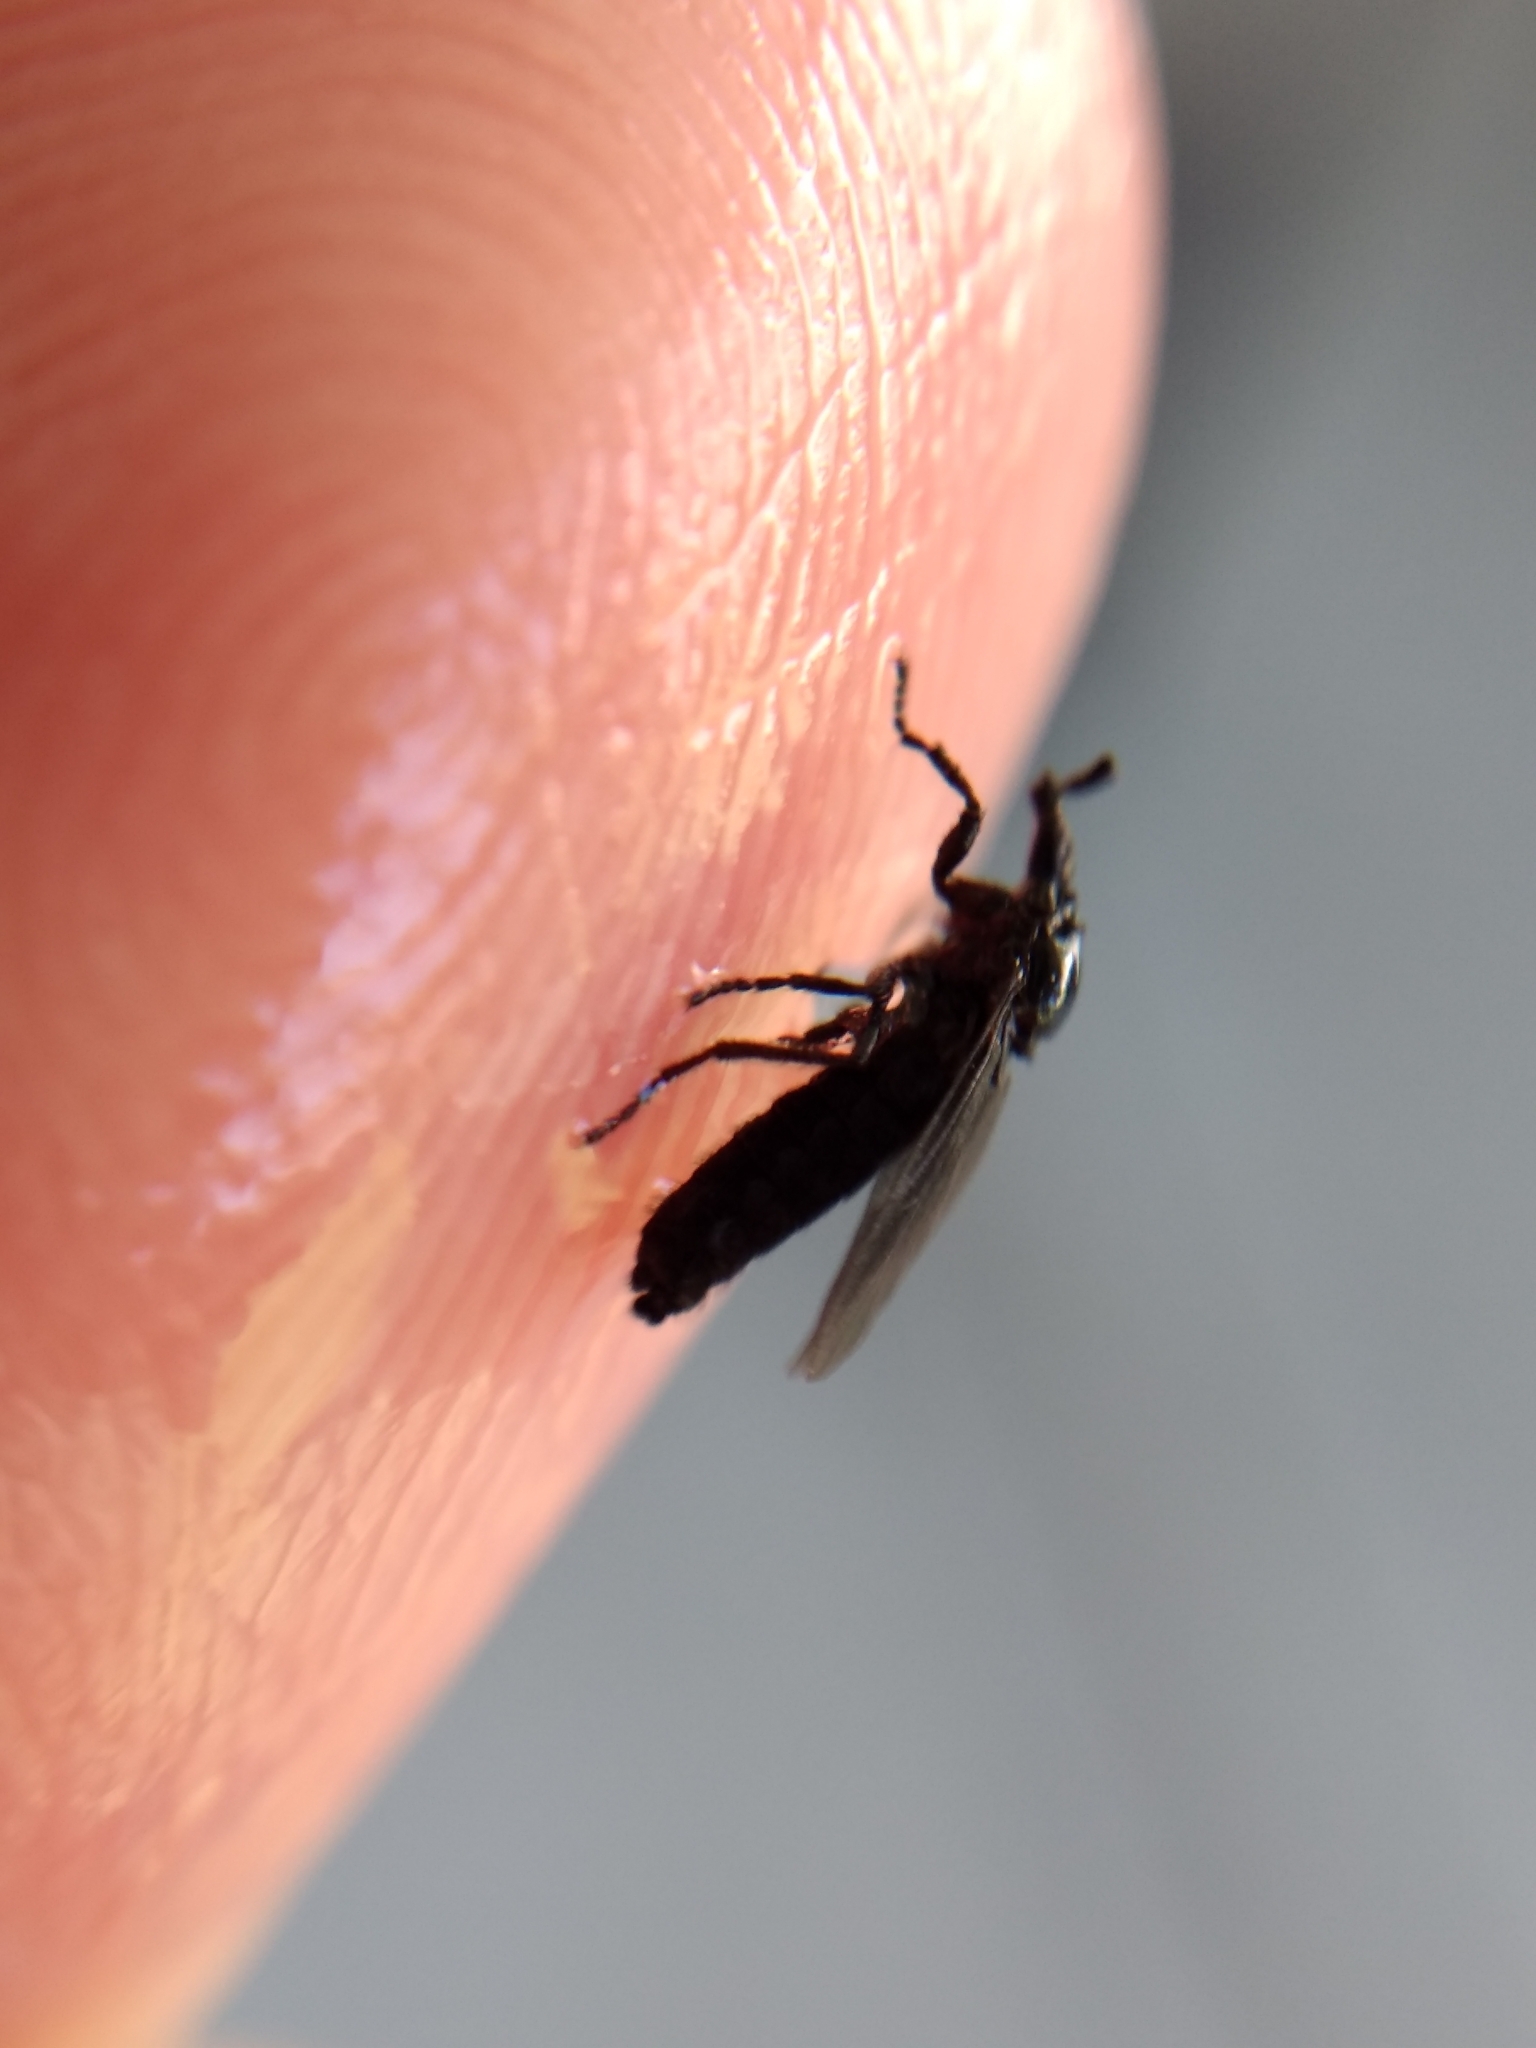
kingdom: Animalia
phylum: Arthropoda
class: Insecta
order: Diptera
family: Bibionidae
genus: Dilophus
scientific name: Dilophus orbatus
